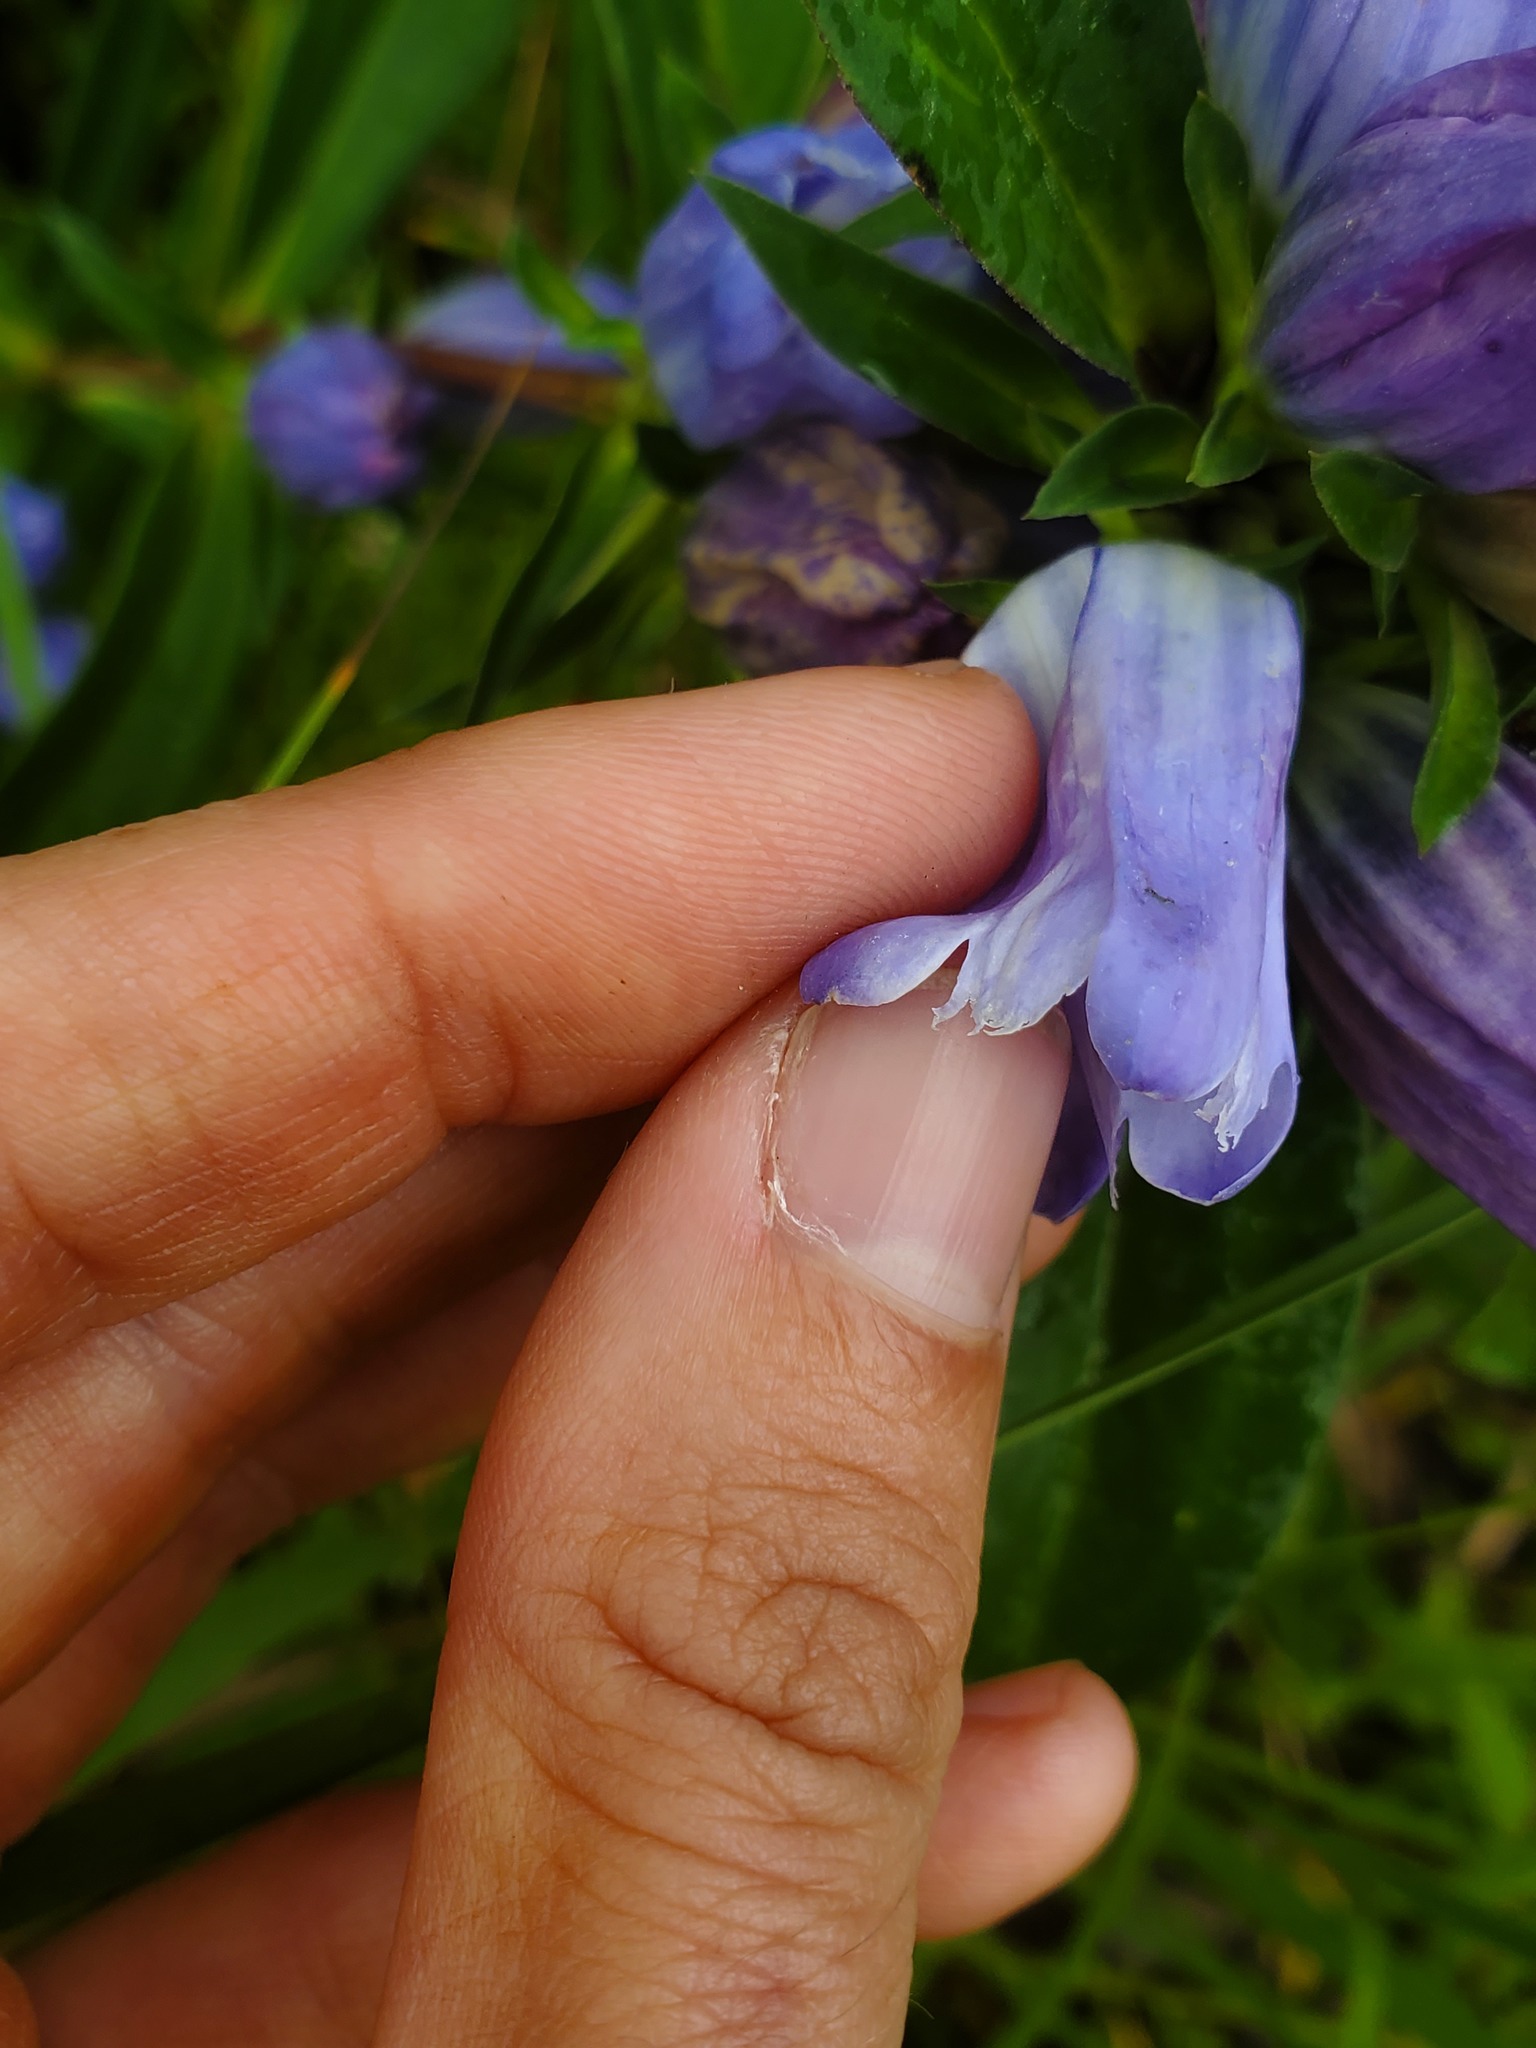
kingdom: Plantae
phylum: Tracheophyta
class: Magnoliopsida
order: Gentianales
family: Gentianaceae
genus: Gentiana
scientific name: Gentiana saponaria
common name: Soapwort gentian
